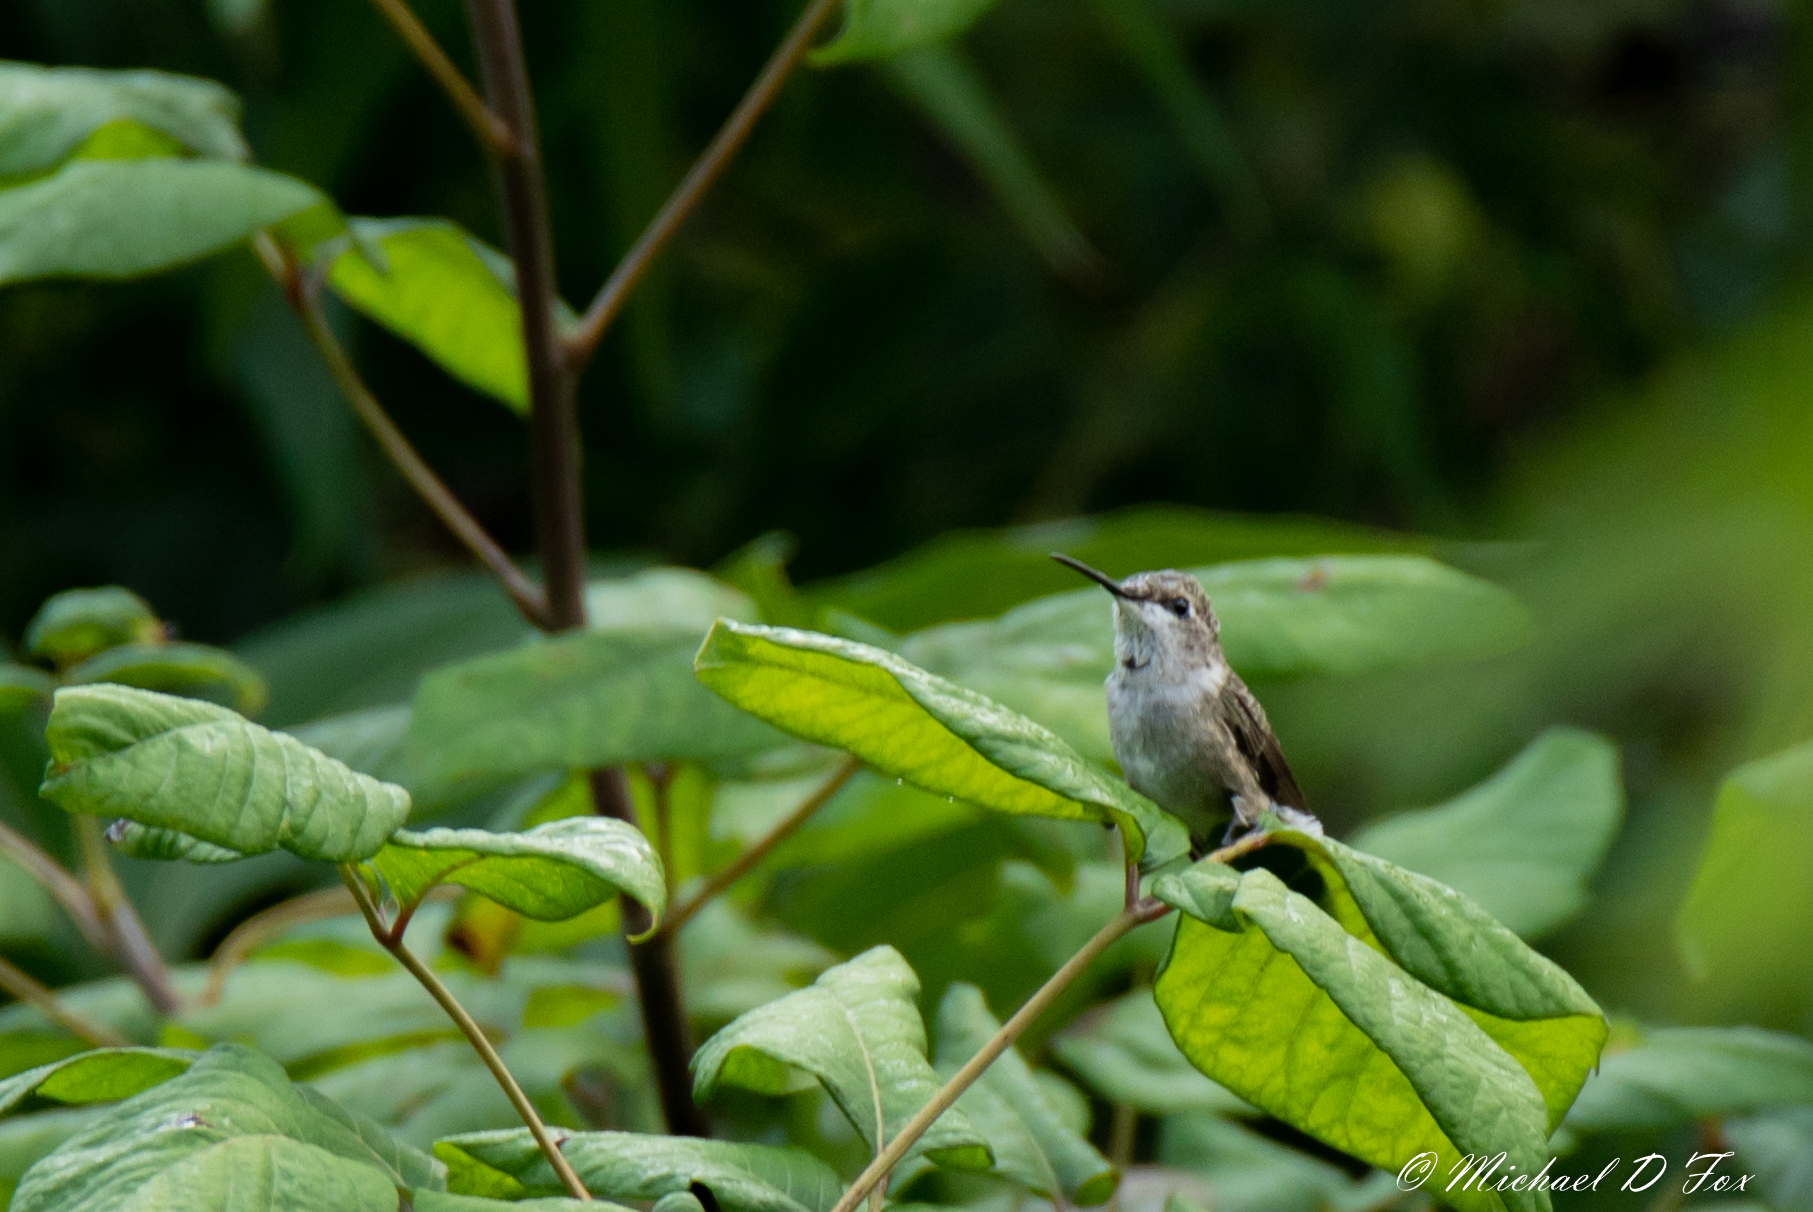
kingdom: Animalia
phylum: Chordata
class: Aves
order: Apodiformes
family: Trochilidae
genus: Archilochus
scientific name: Archilochus colubris
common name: Ruby-throated hummingbird
